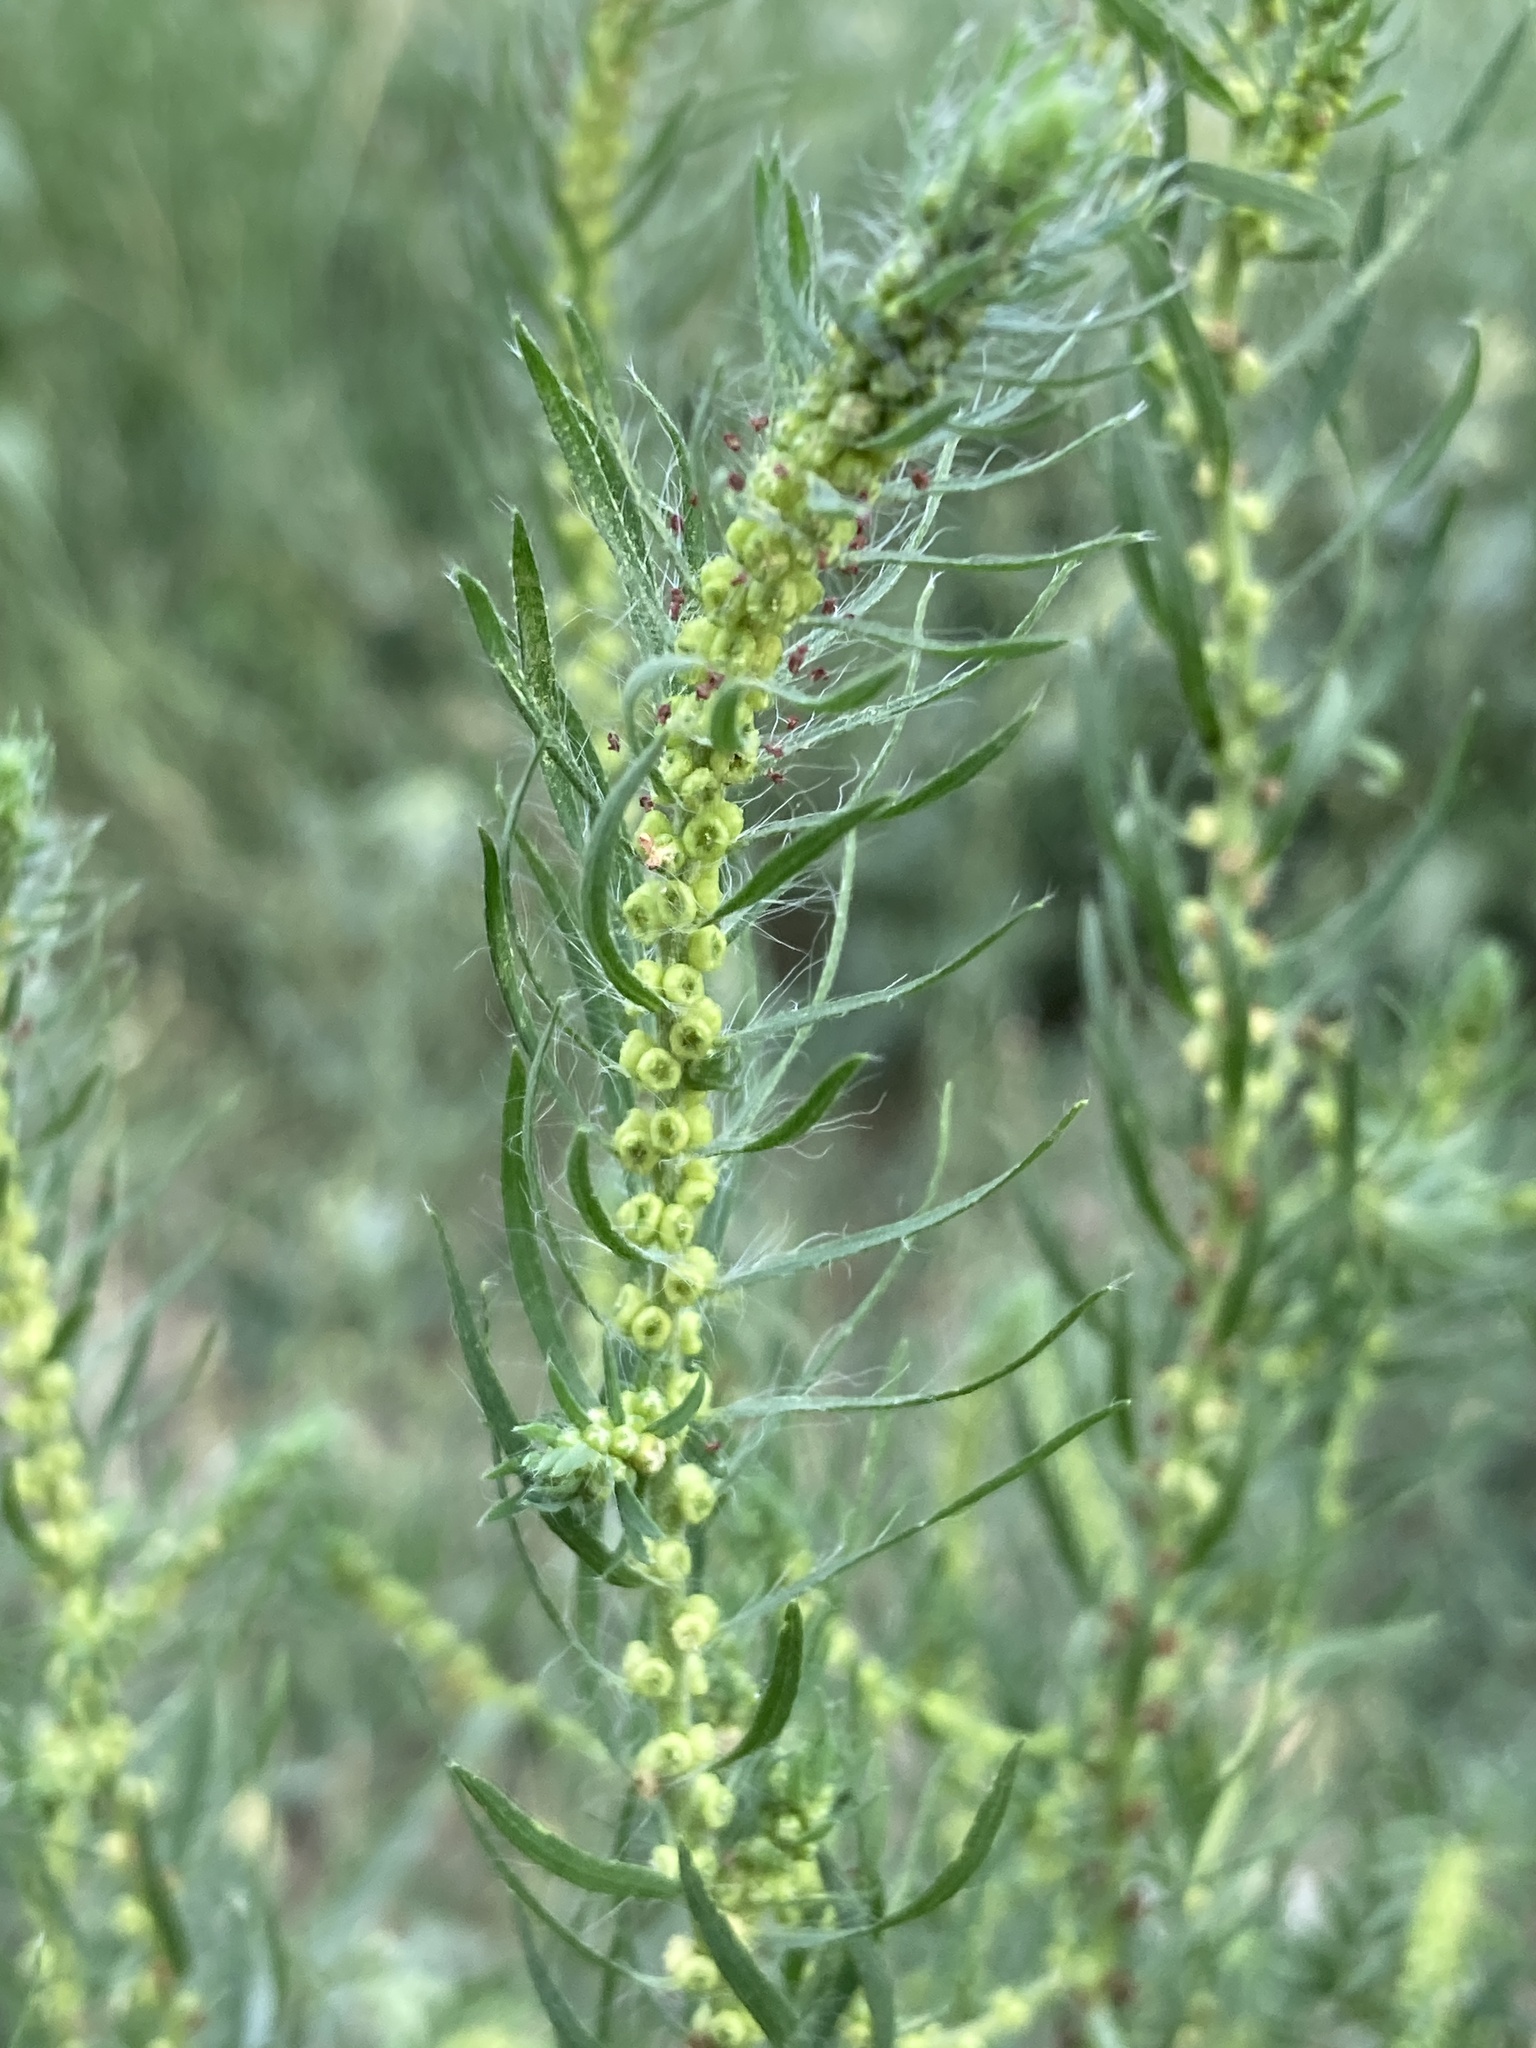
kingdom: Plantae
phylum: Tracheophyta
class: Magnoliopsida
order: Caryophyllales
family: Amaranthaceae
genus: Bassia
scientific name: Bassia scoparia
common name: Belvedere
